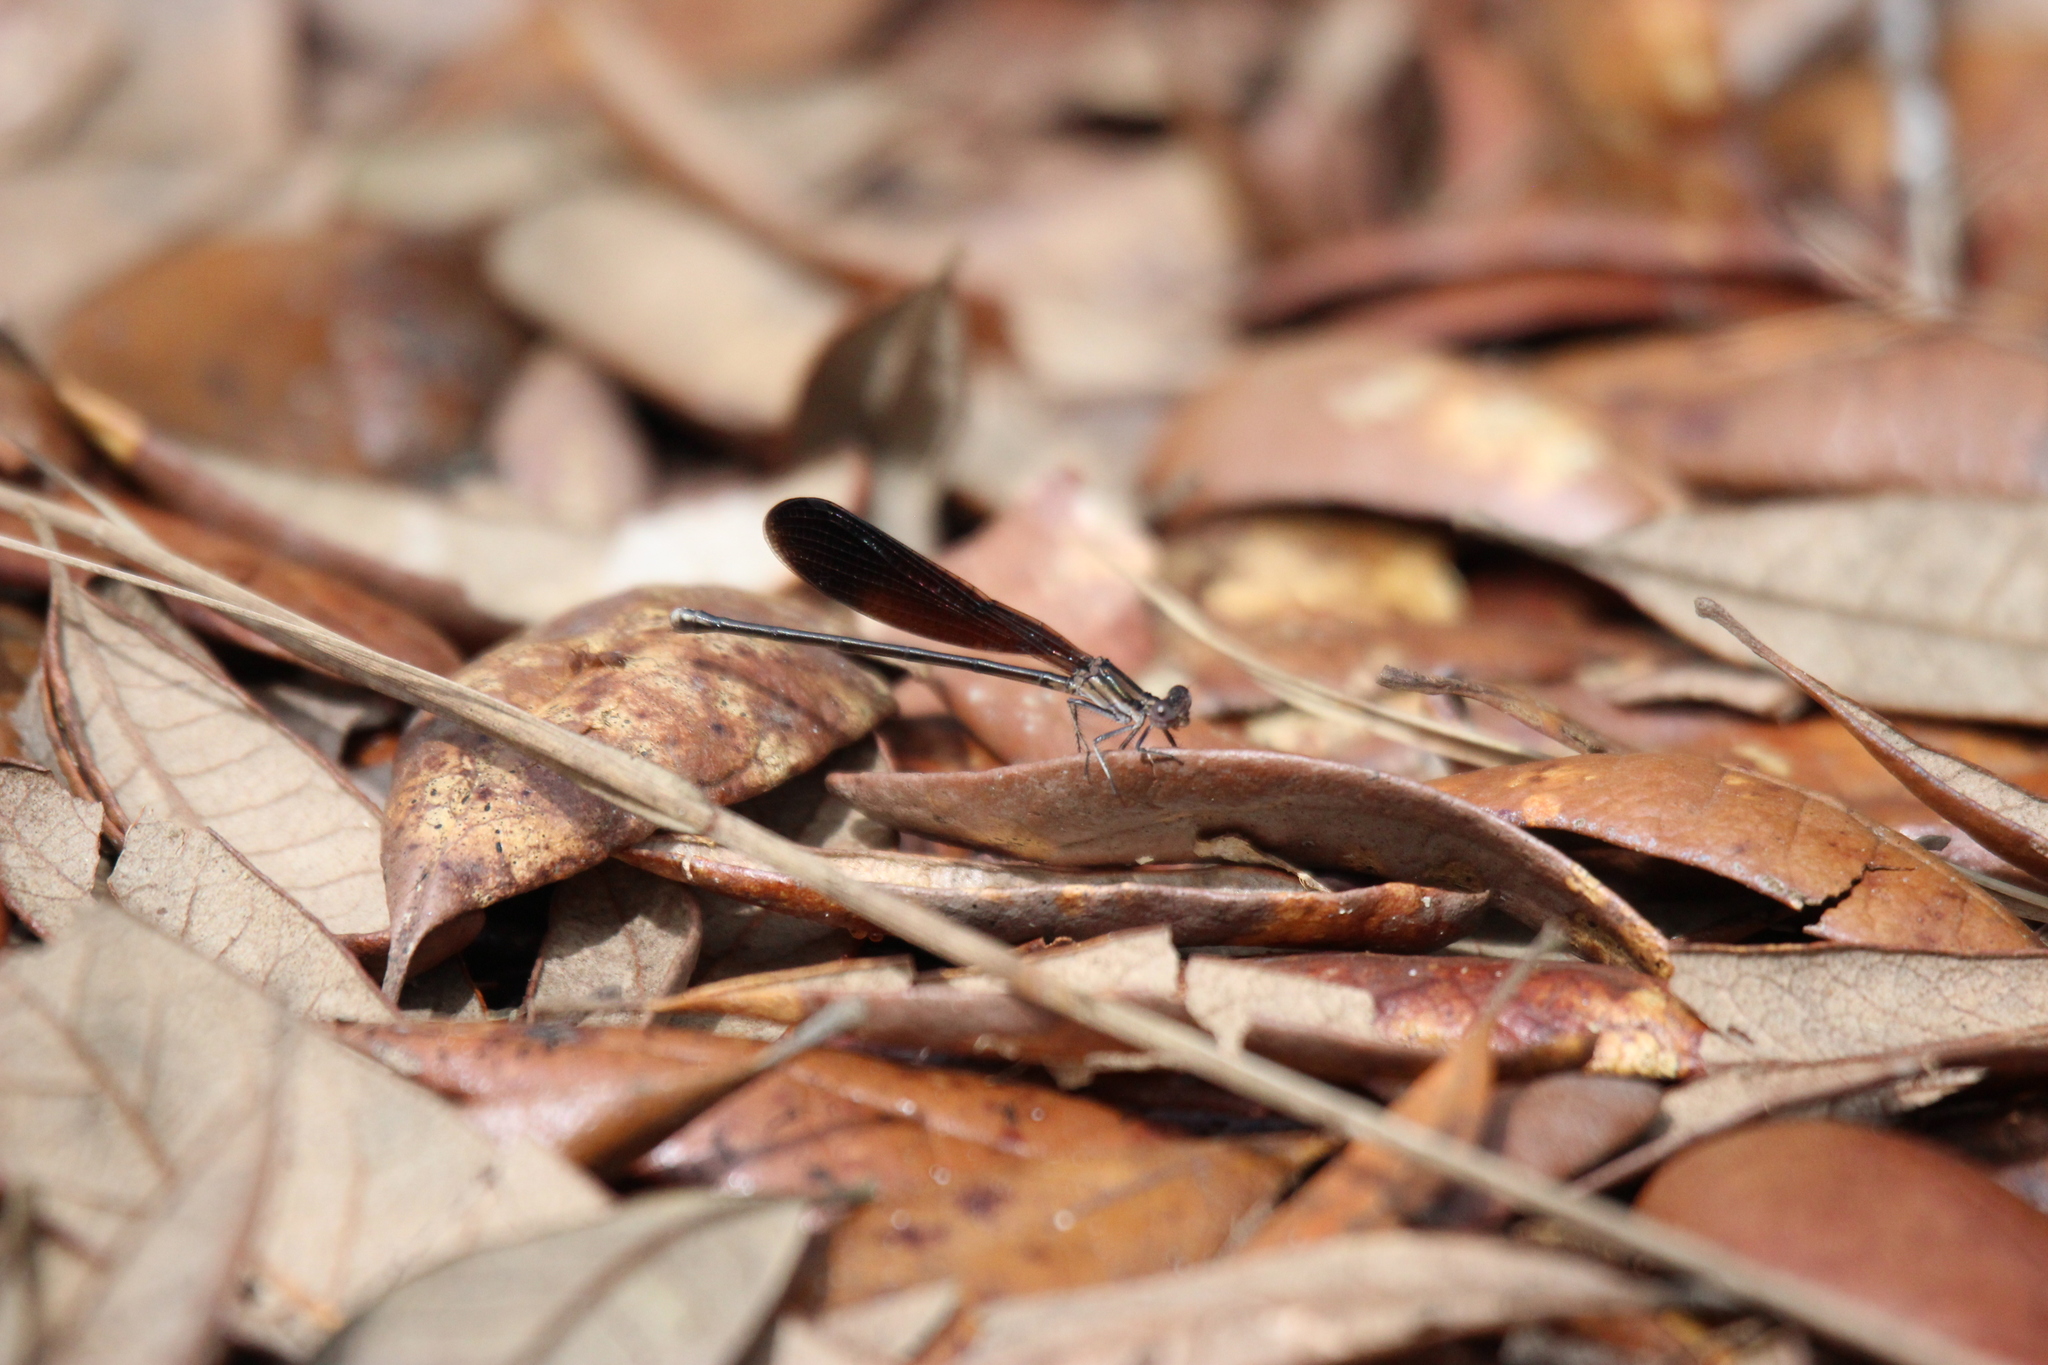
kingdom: Animalia
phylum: Arthropoda
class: Insecta
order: Odonata
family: Coenagrionidae
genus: Argia
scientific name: Argia fumipennis
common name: Variable dancer
